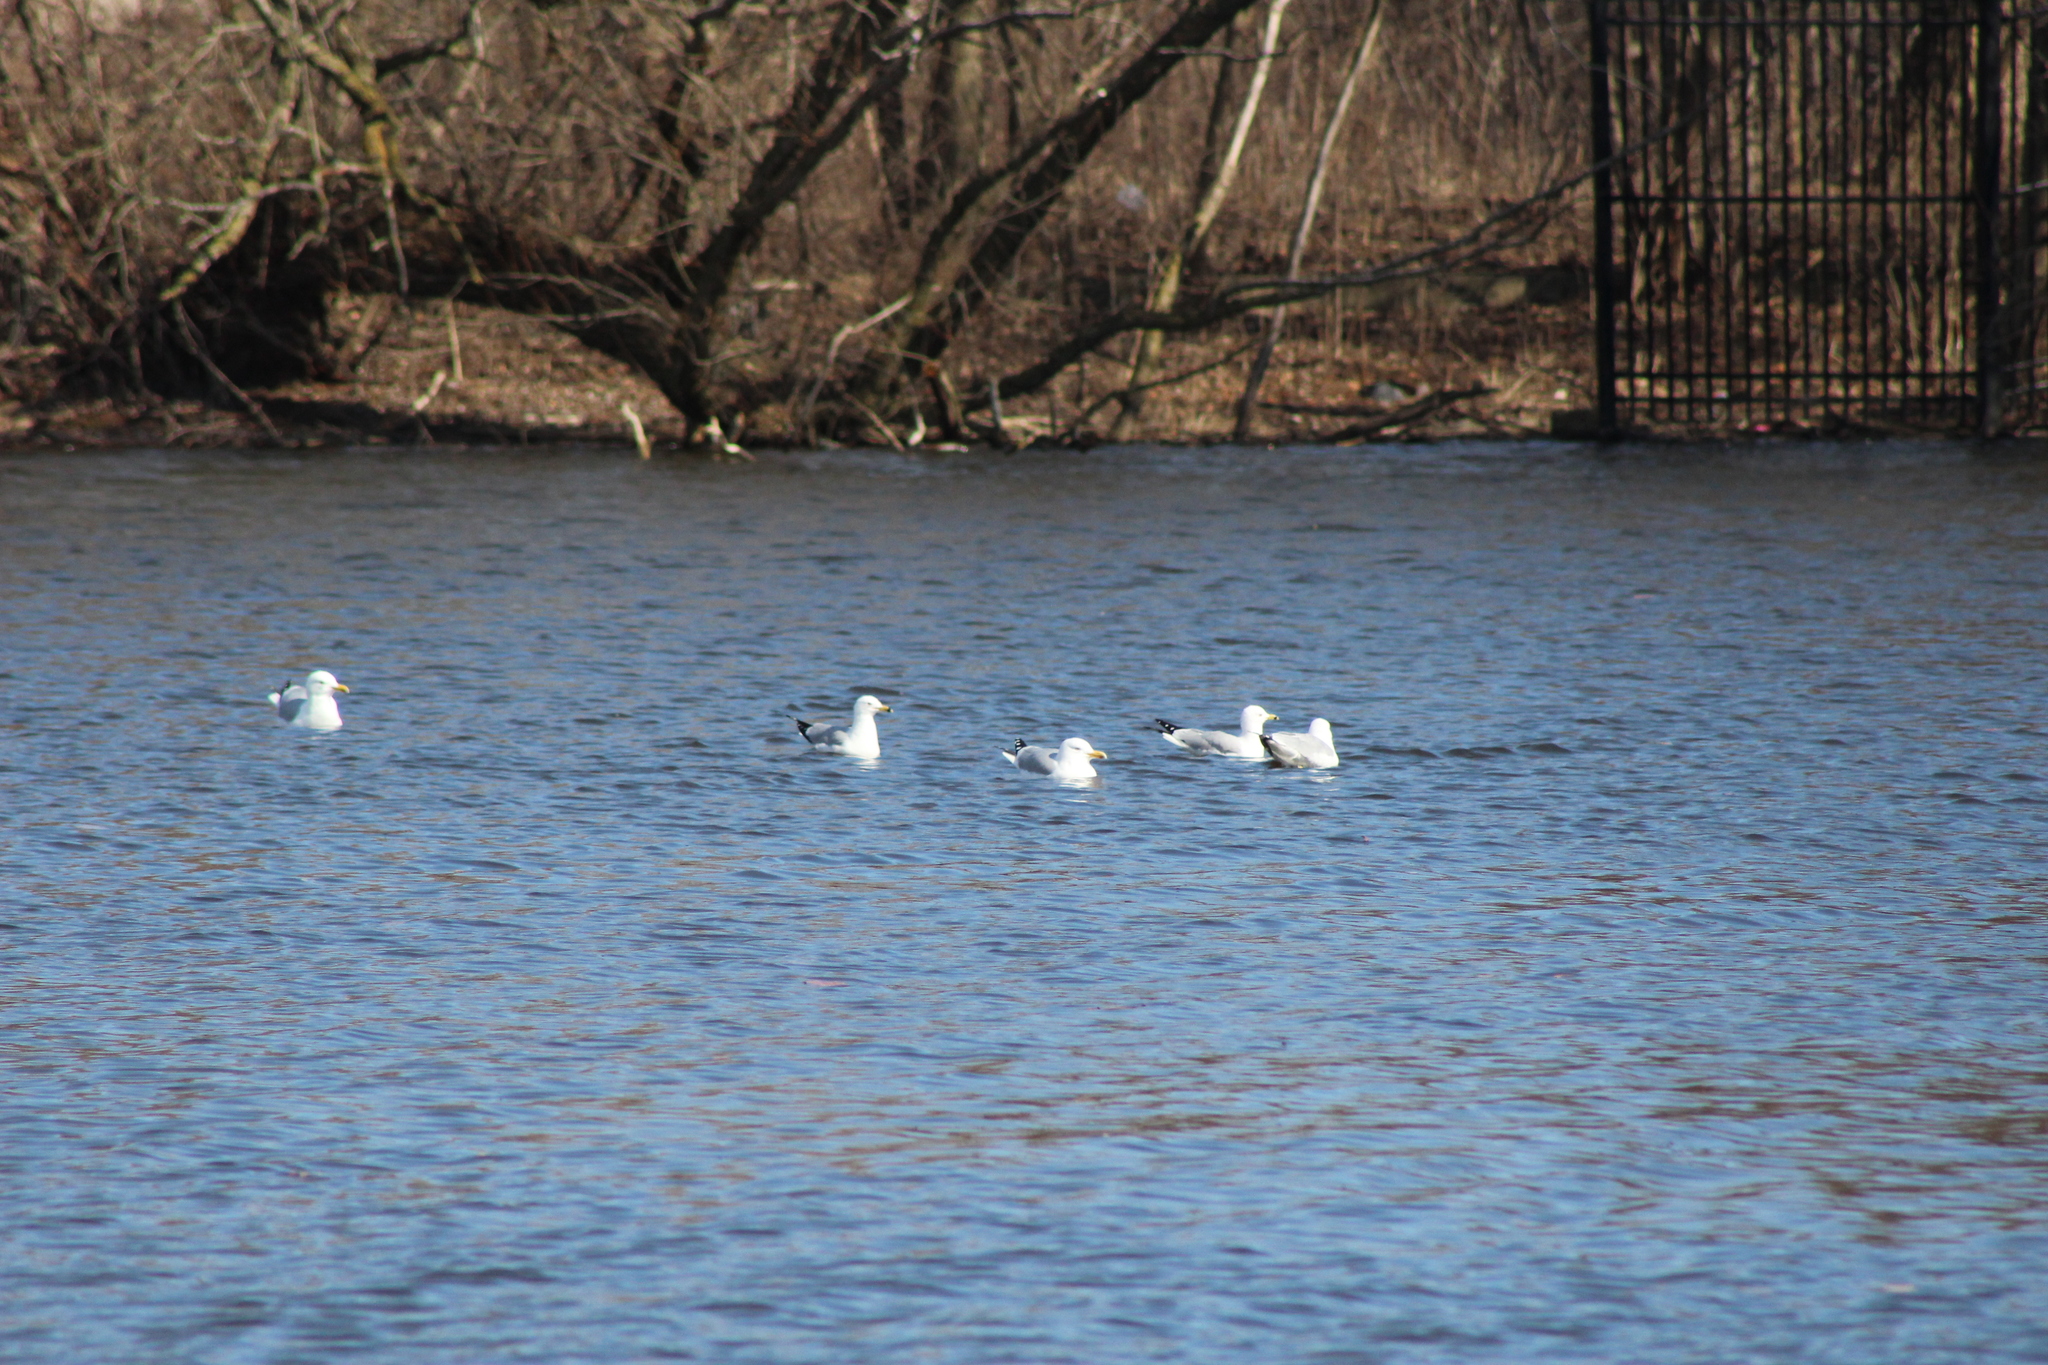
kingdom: Animalia
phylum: Chordata
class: Aves
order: Charadriiformes
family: Laridae
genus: Larus
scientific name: Larus smithsonianus
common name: American herring gull
